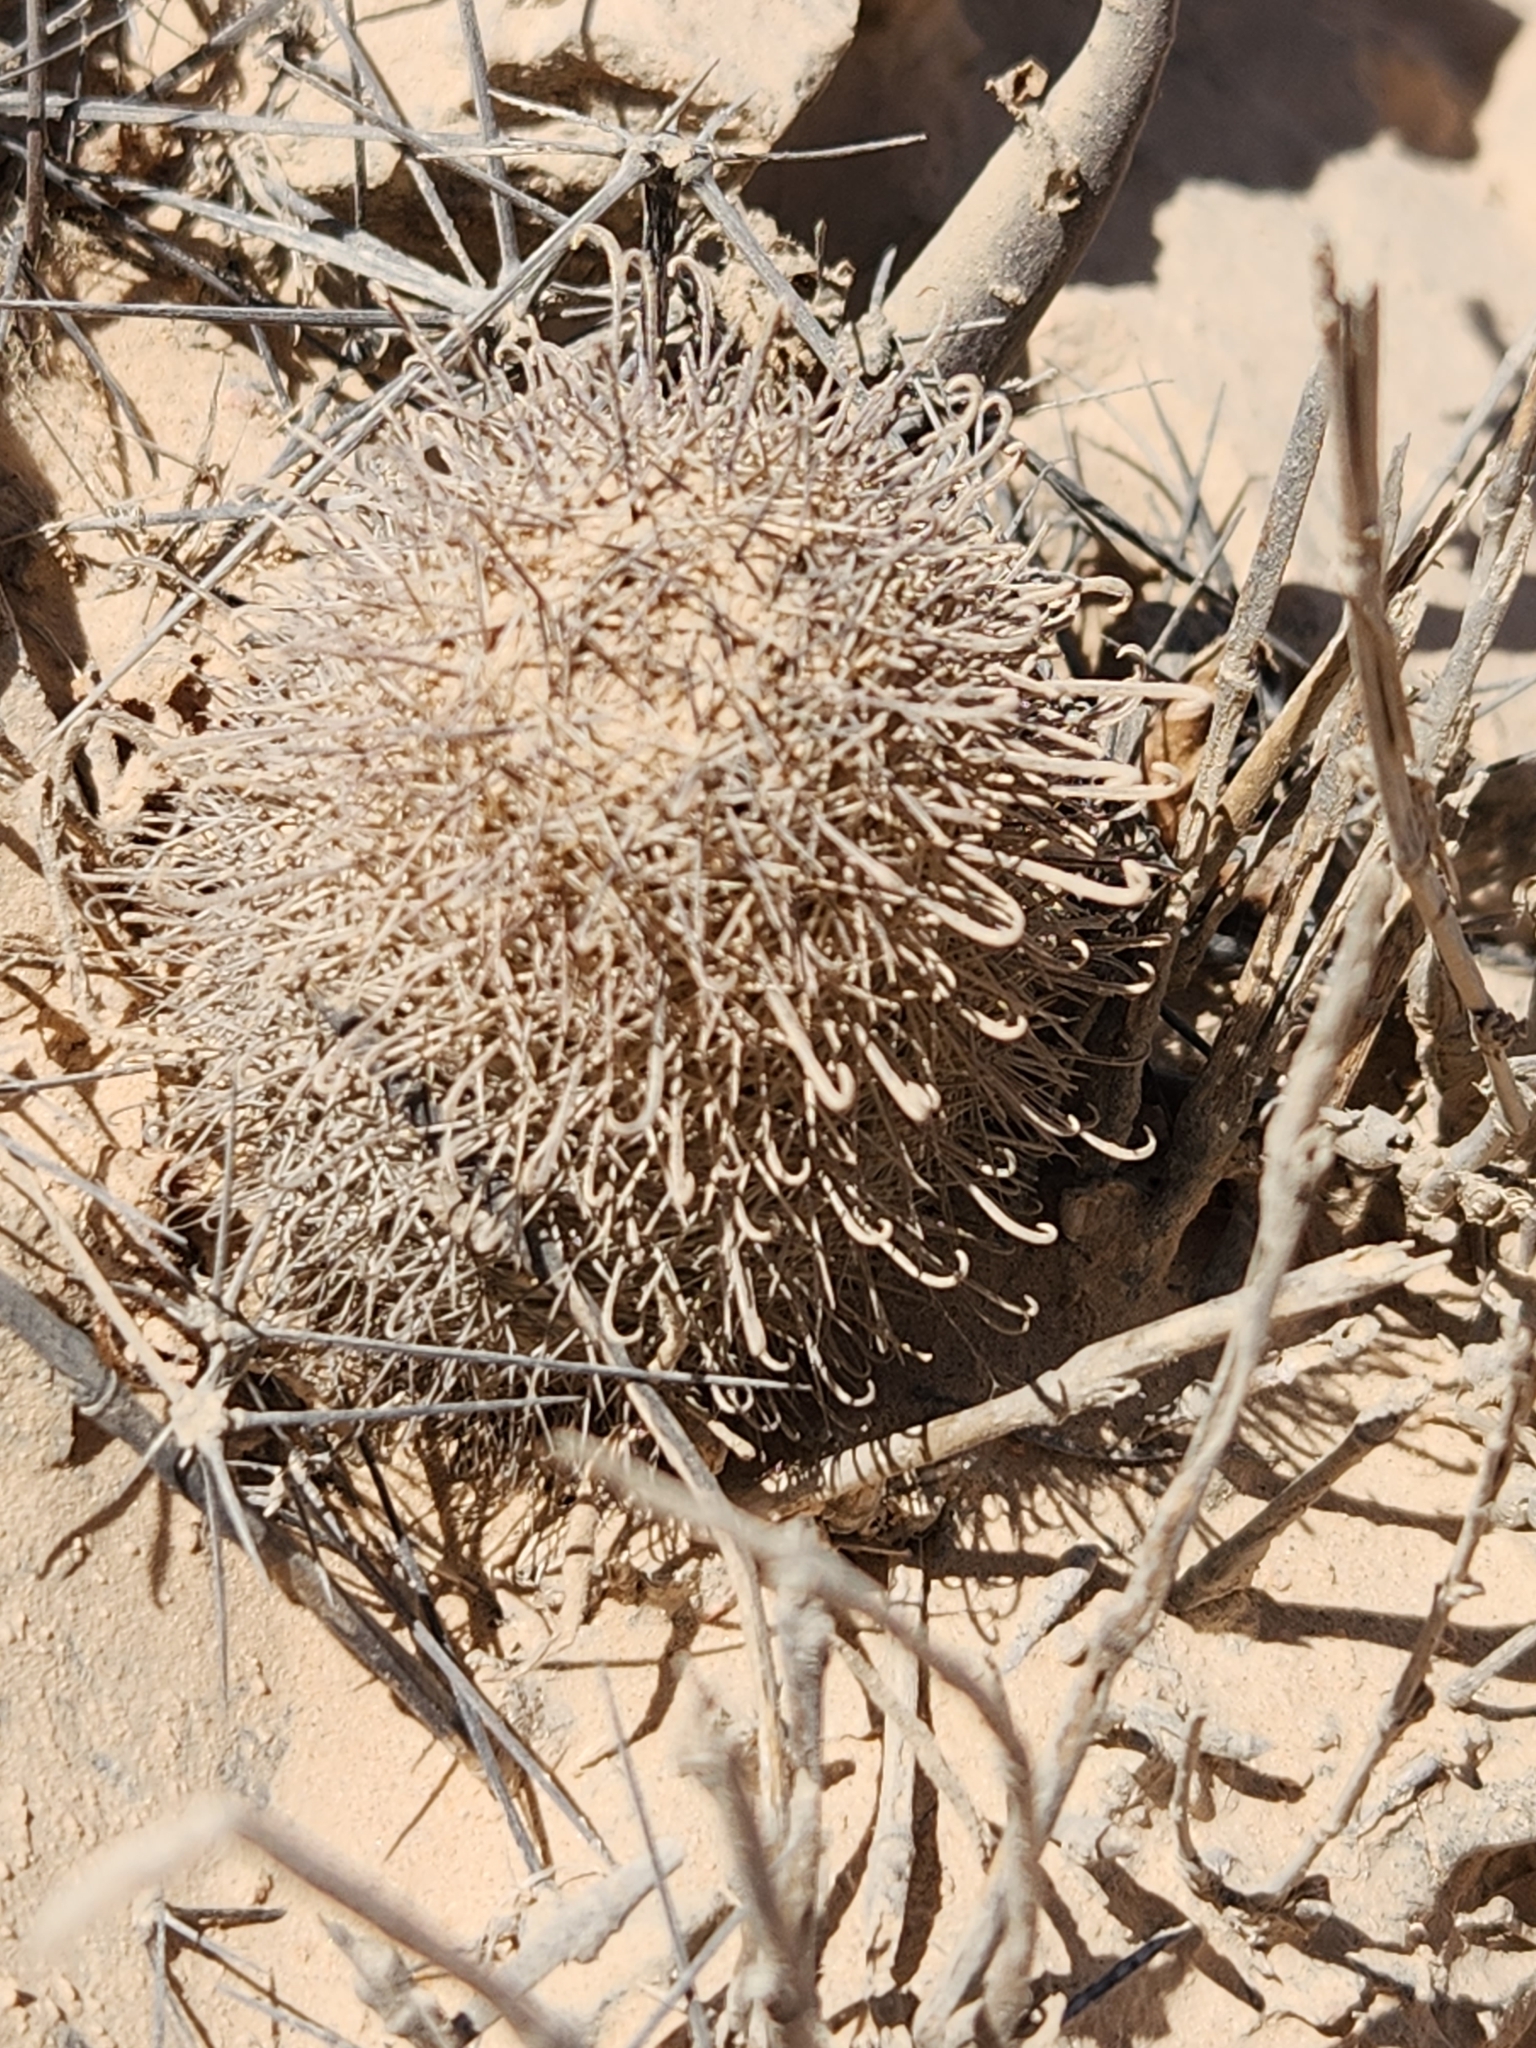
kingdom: Plantae
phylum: Tracheophyta
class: Magnoliopsida
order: Caryophyllales
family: Cactaceae
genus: Cochemiea
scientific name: Cochemiea armillata
